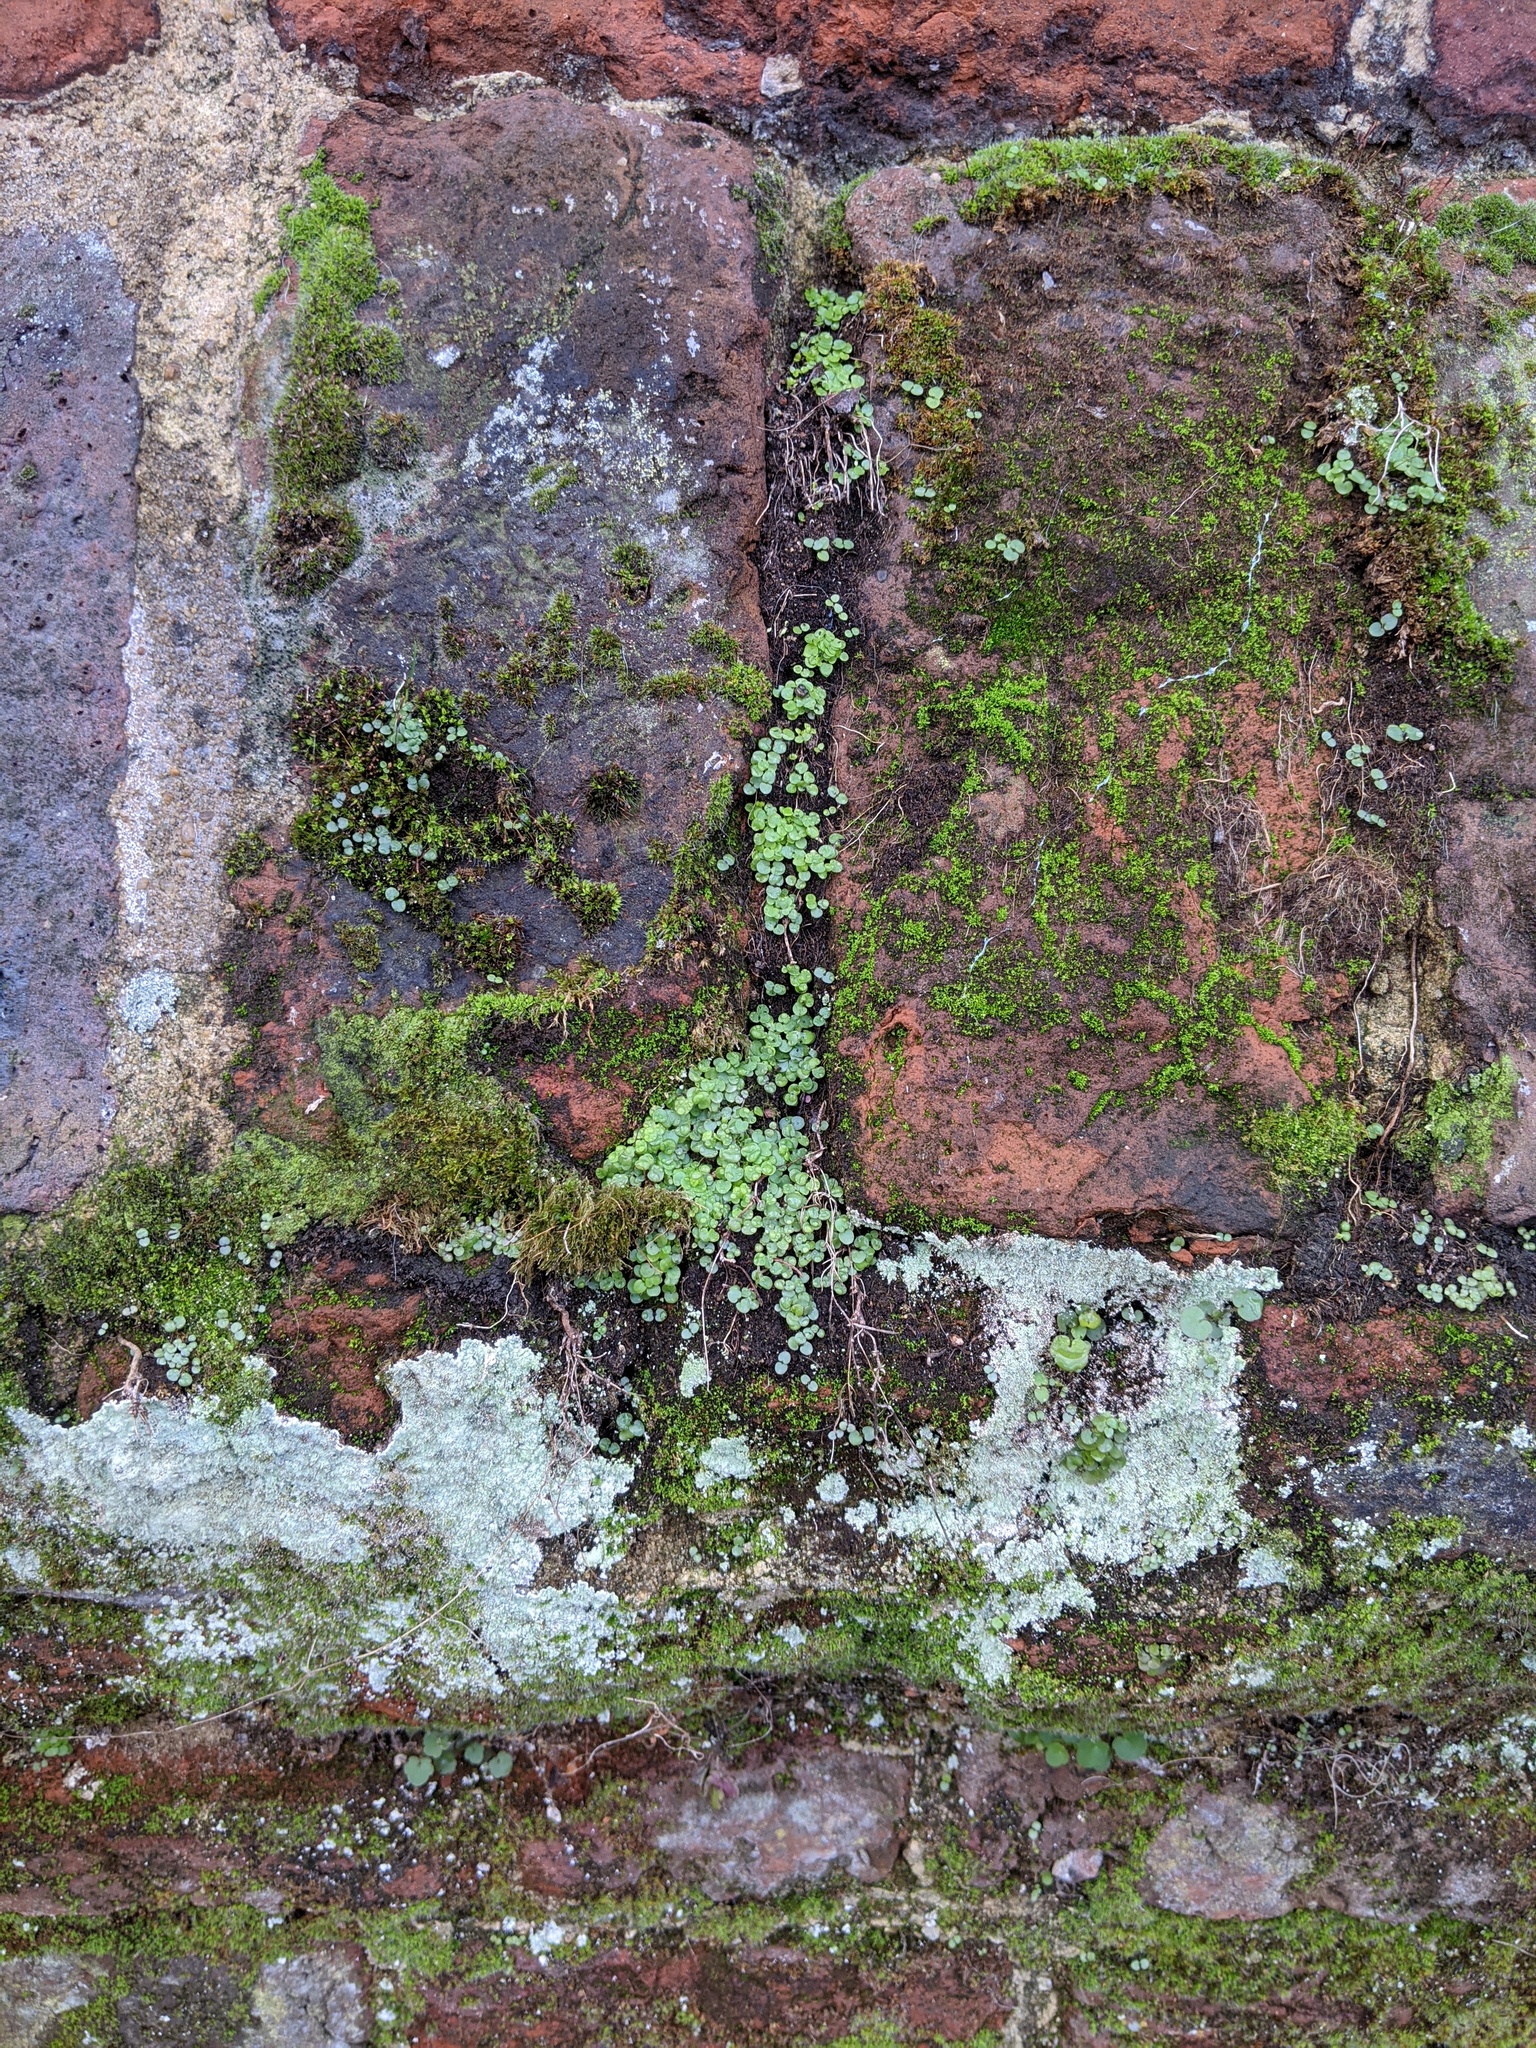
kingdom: Plantae
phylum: Tracheophyta
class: Magnoliopsida
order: Rosales
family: Urticaceae
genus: Soleirolia
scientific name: Soleirolia soleirolii
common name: Mind-your-own-business
